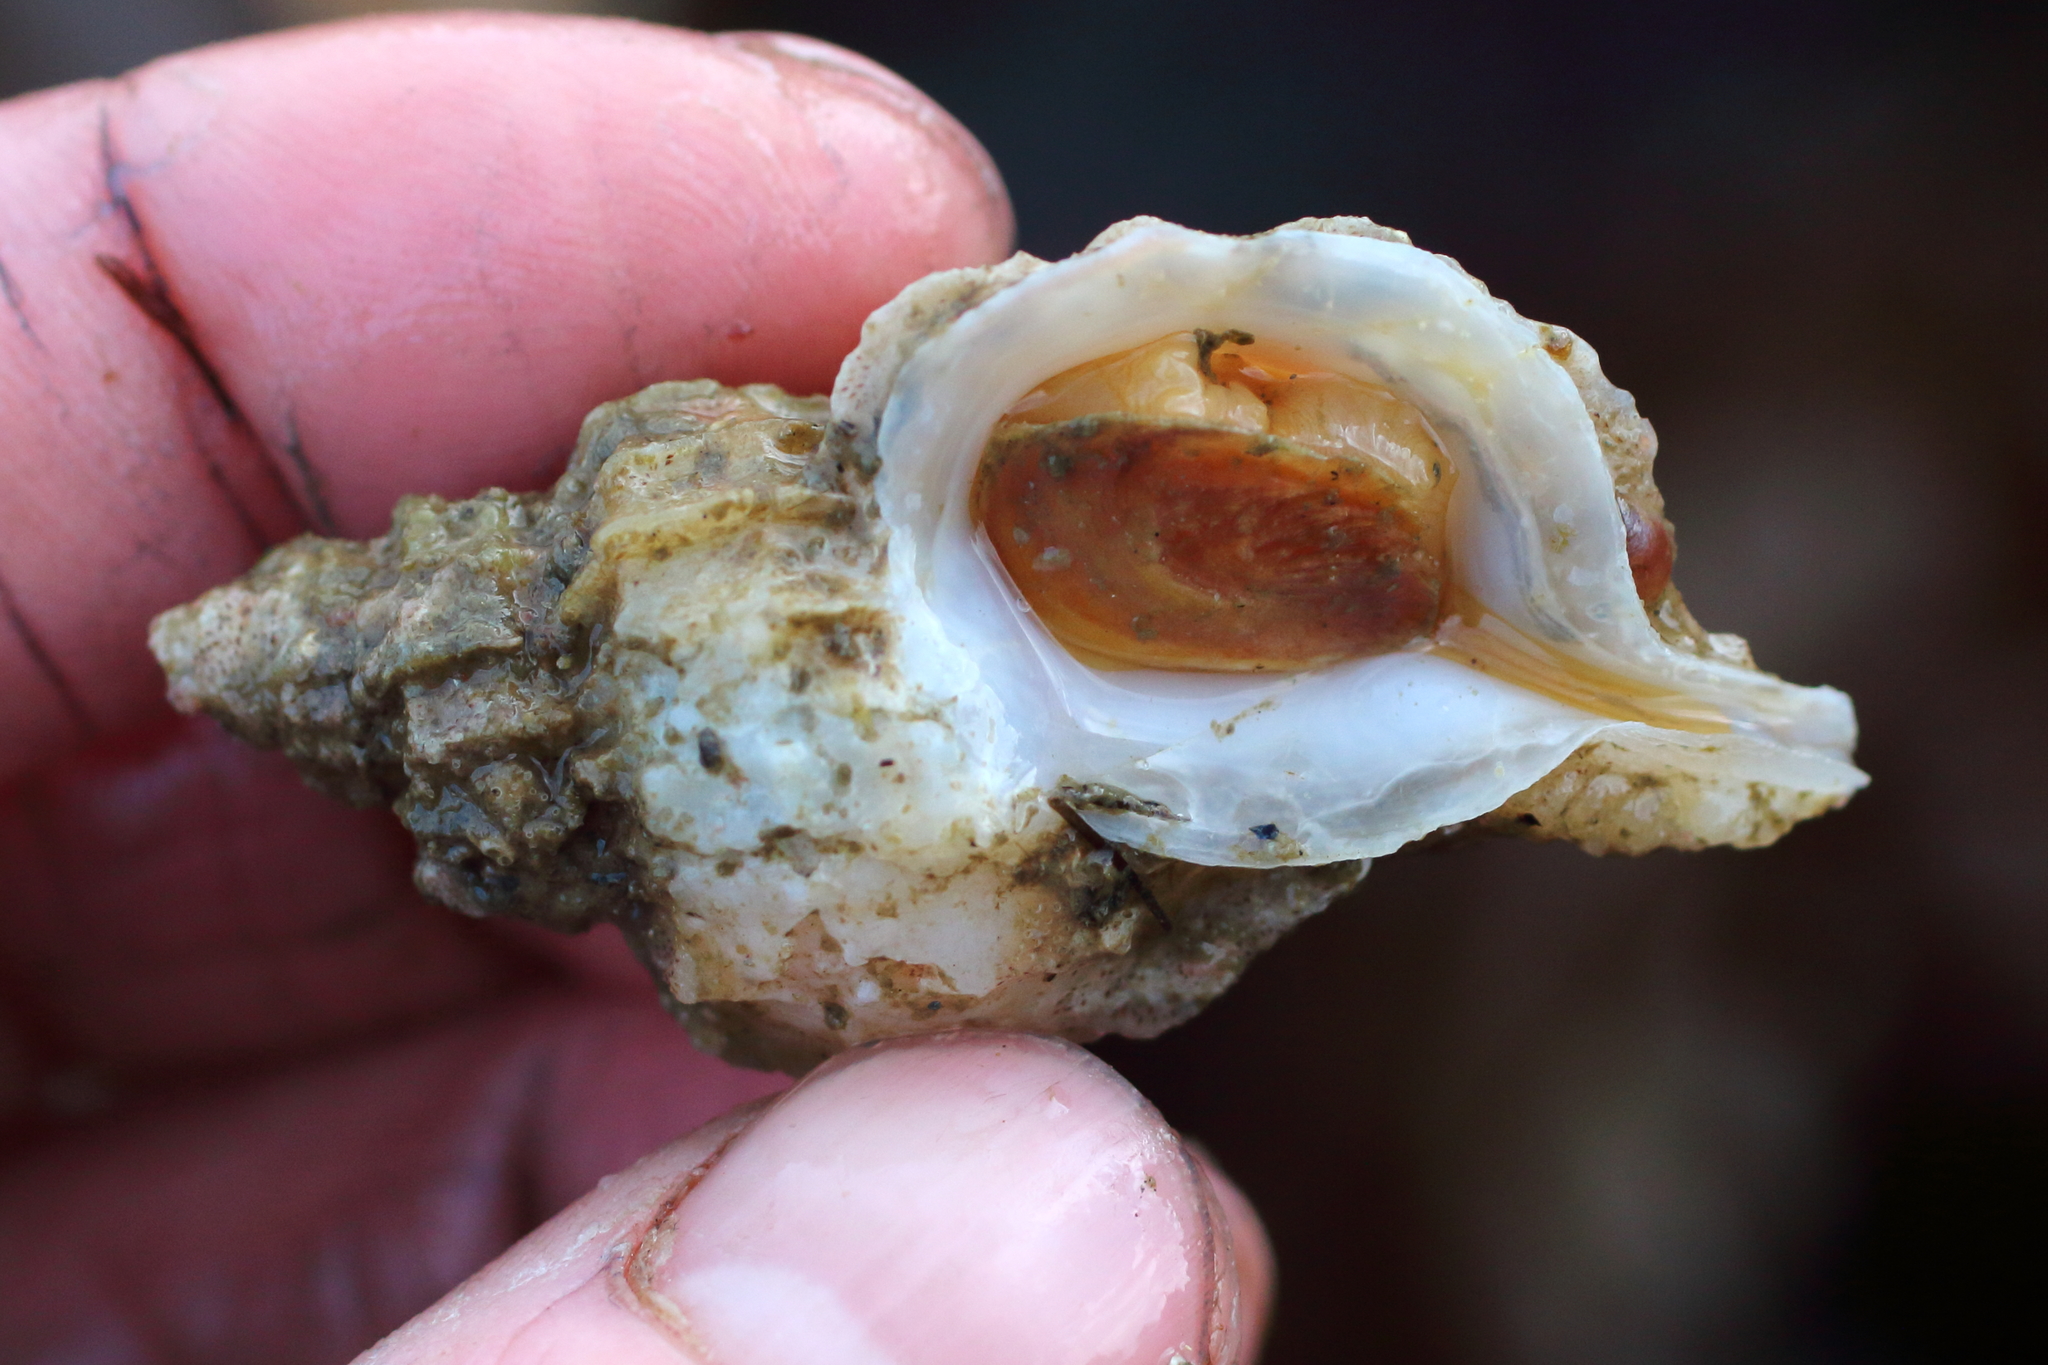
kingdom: Animalia
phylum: Mollusca
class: Gastropoda
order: Neogastropoda
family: Muricidae
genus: Scabrotrophon
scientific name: Scabrotrophon stuarti
